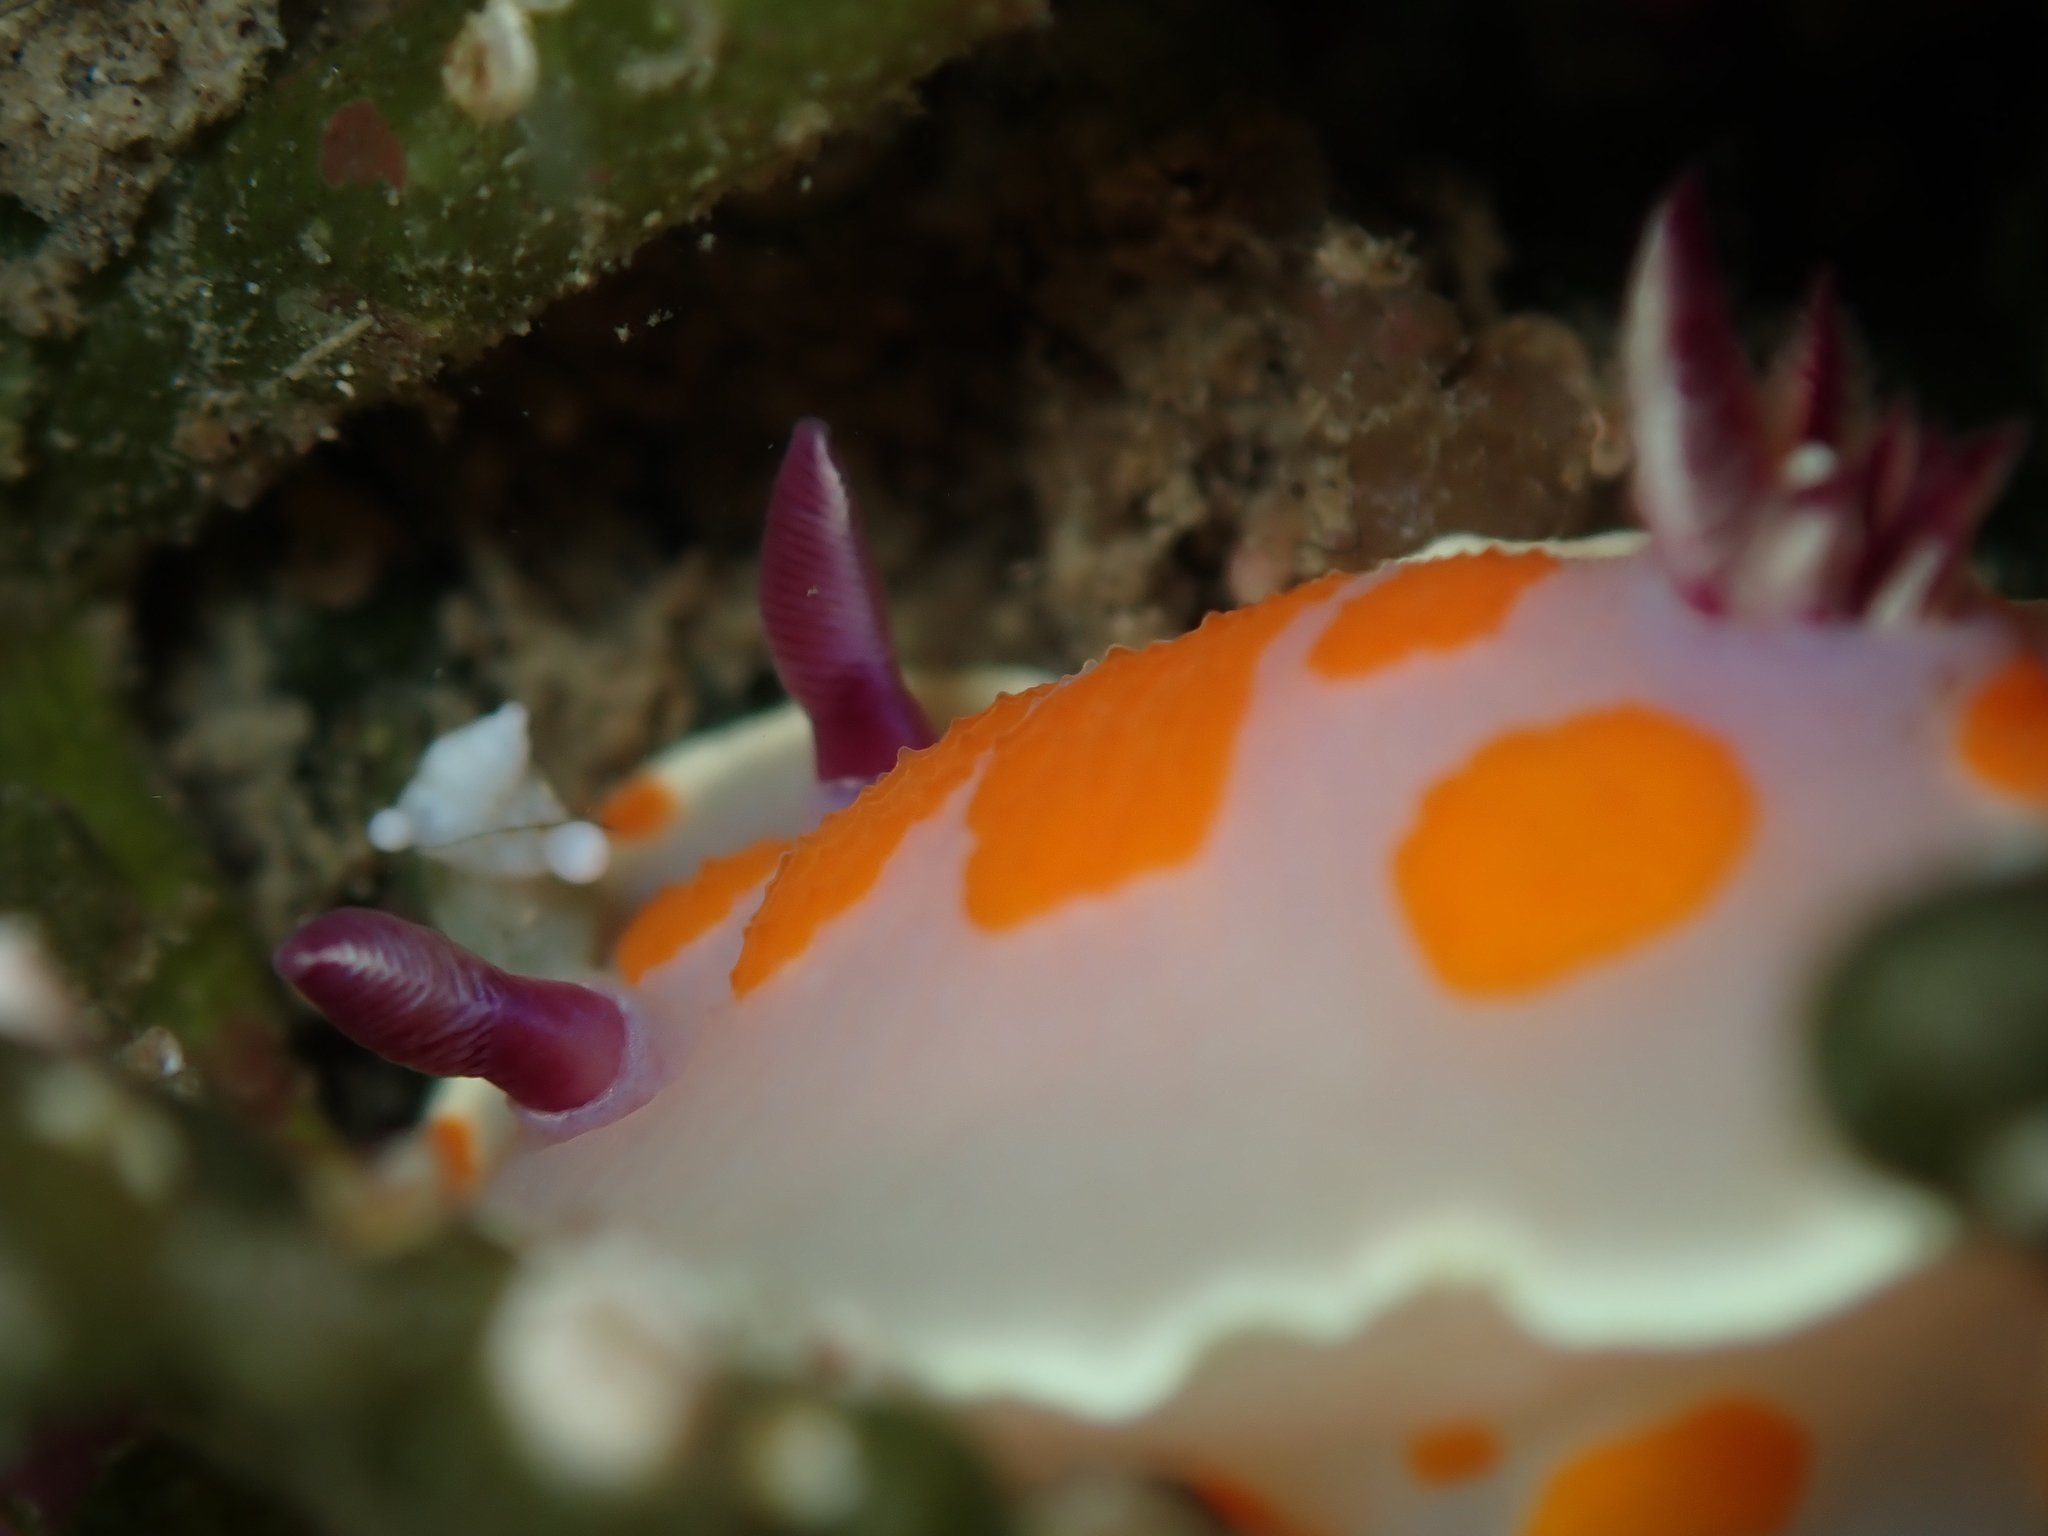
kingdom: Animalia
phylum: Mollusca
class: Gastropoda
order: Nudibranchia
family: Chromodorididae
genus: Ceratosoma
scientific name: Ceratosoma amoenum
